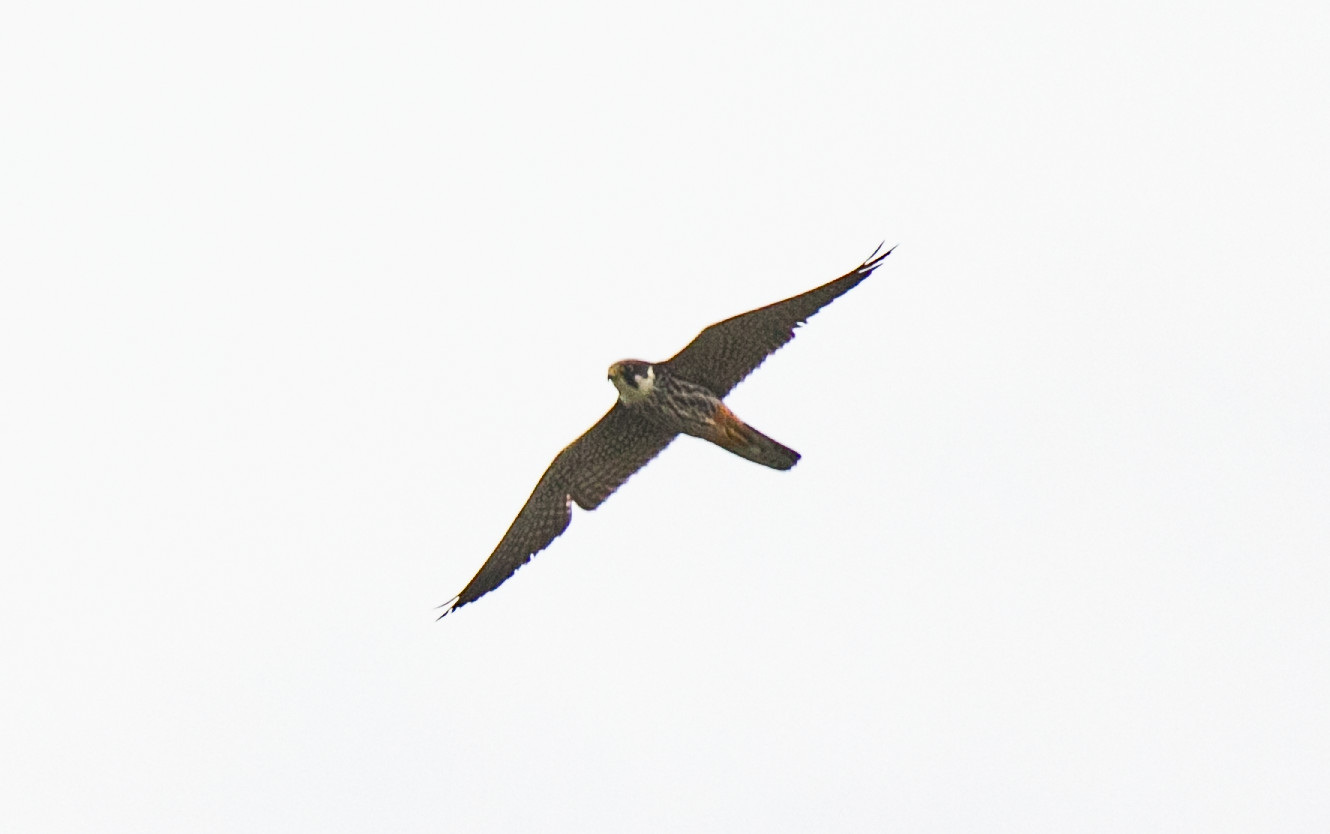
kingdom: Animalia
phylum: Chordata
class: Aves
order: Falconiformes
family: Falconidae
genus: Falco
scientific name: Falco subbuteo
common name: Eurasian hobby
